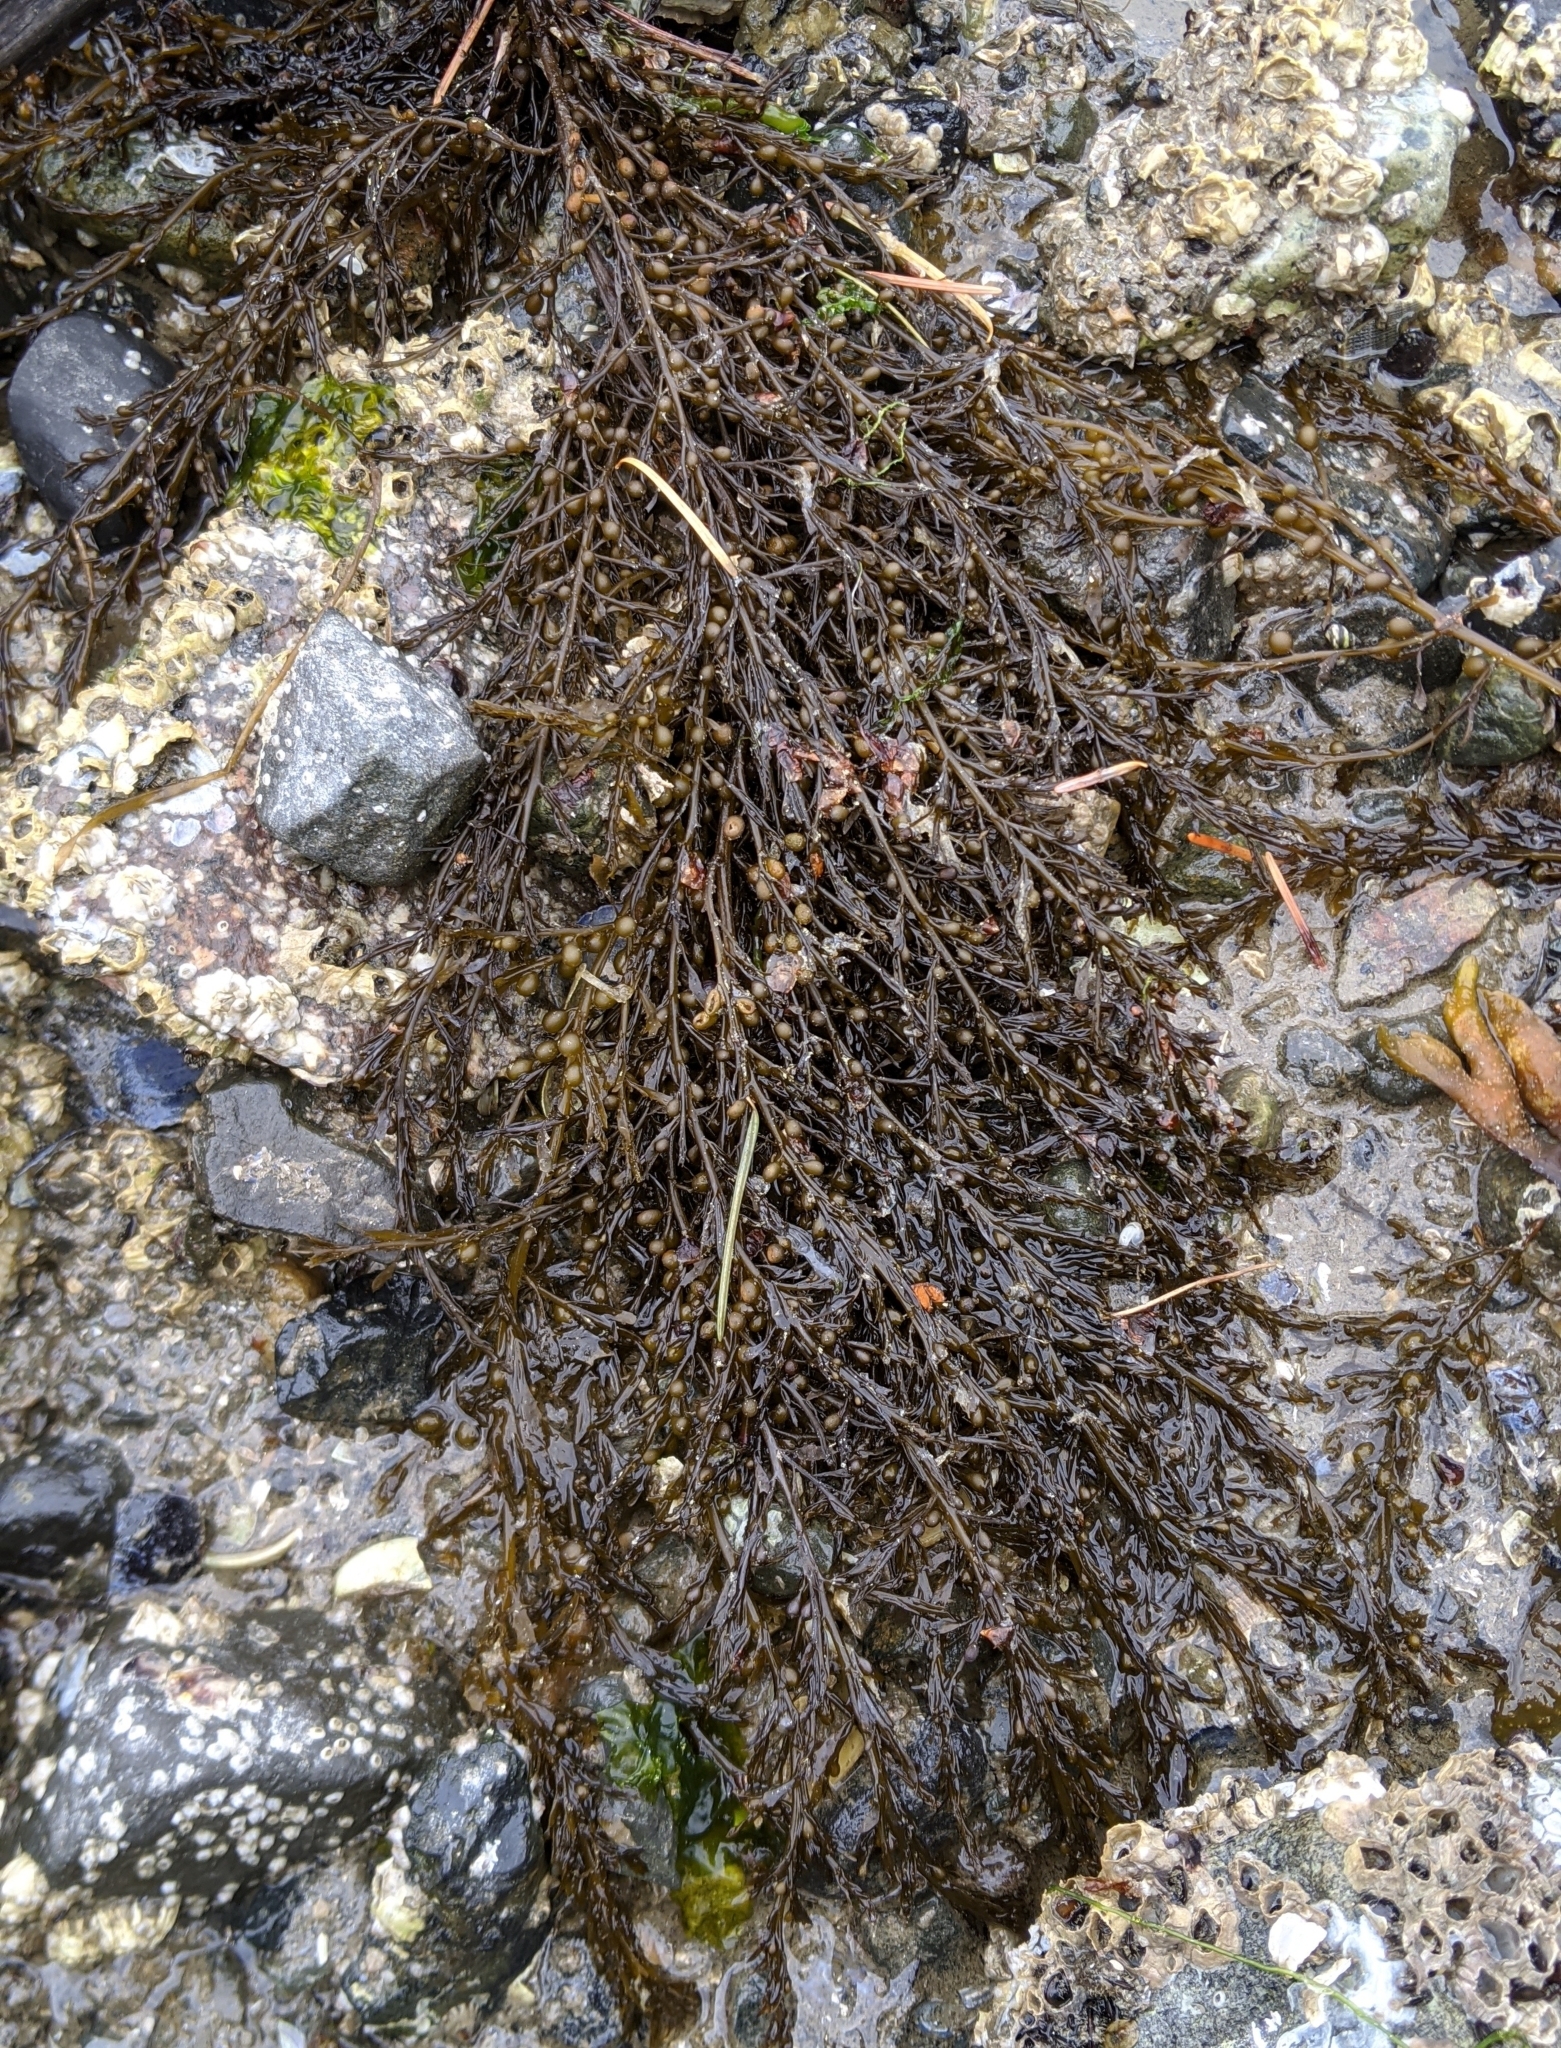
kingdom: Chromista
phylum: Ochrophyta
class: Phaeophyceae
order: Fucales
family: Sargassaceae
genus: Sargassum
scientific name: Sargassum muticum
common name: Japweed
